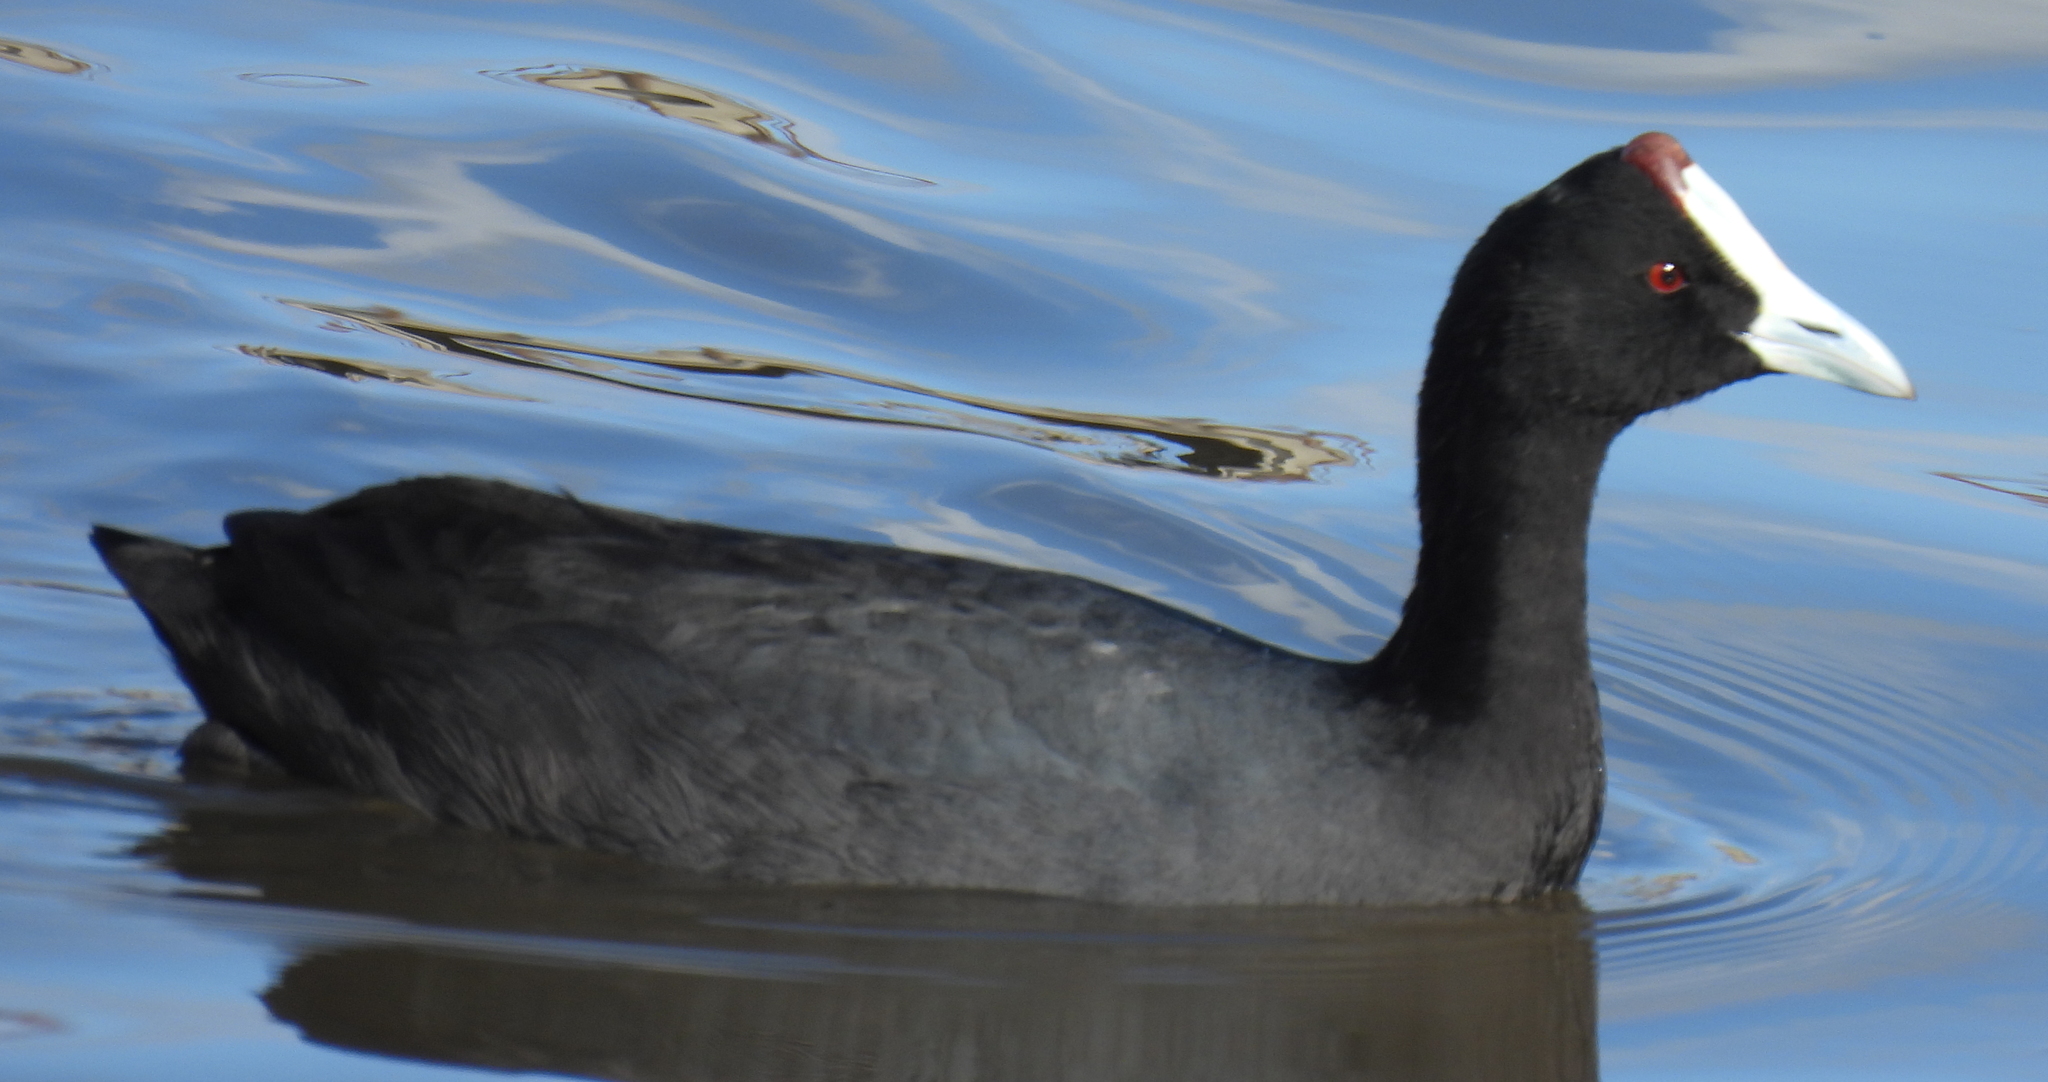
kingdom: Animalia
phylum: Chordata
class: Aves
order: Gruiformes
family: Rallidae
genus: Fulica
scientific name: Fulica cristata
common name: Red-knobbed coot
